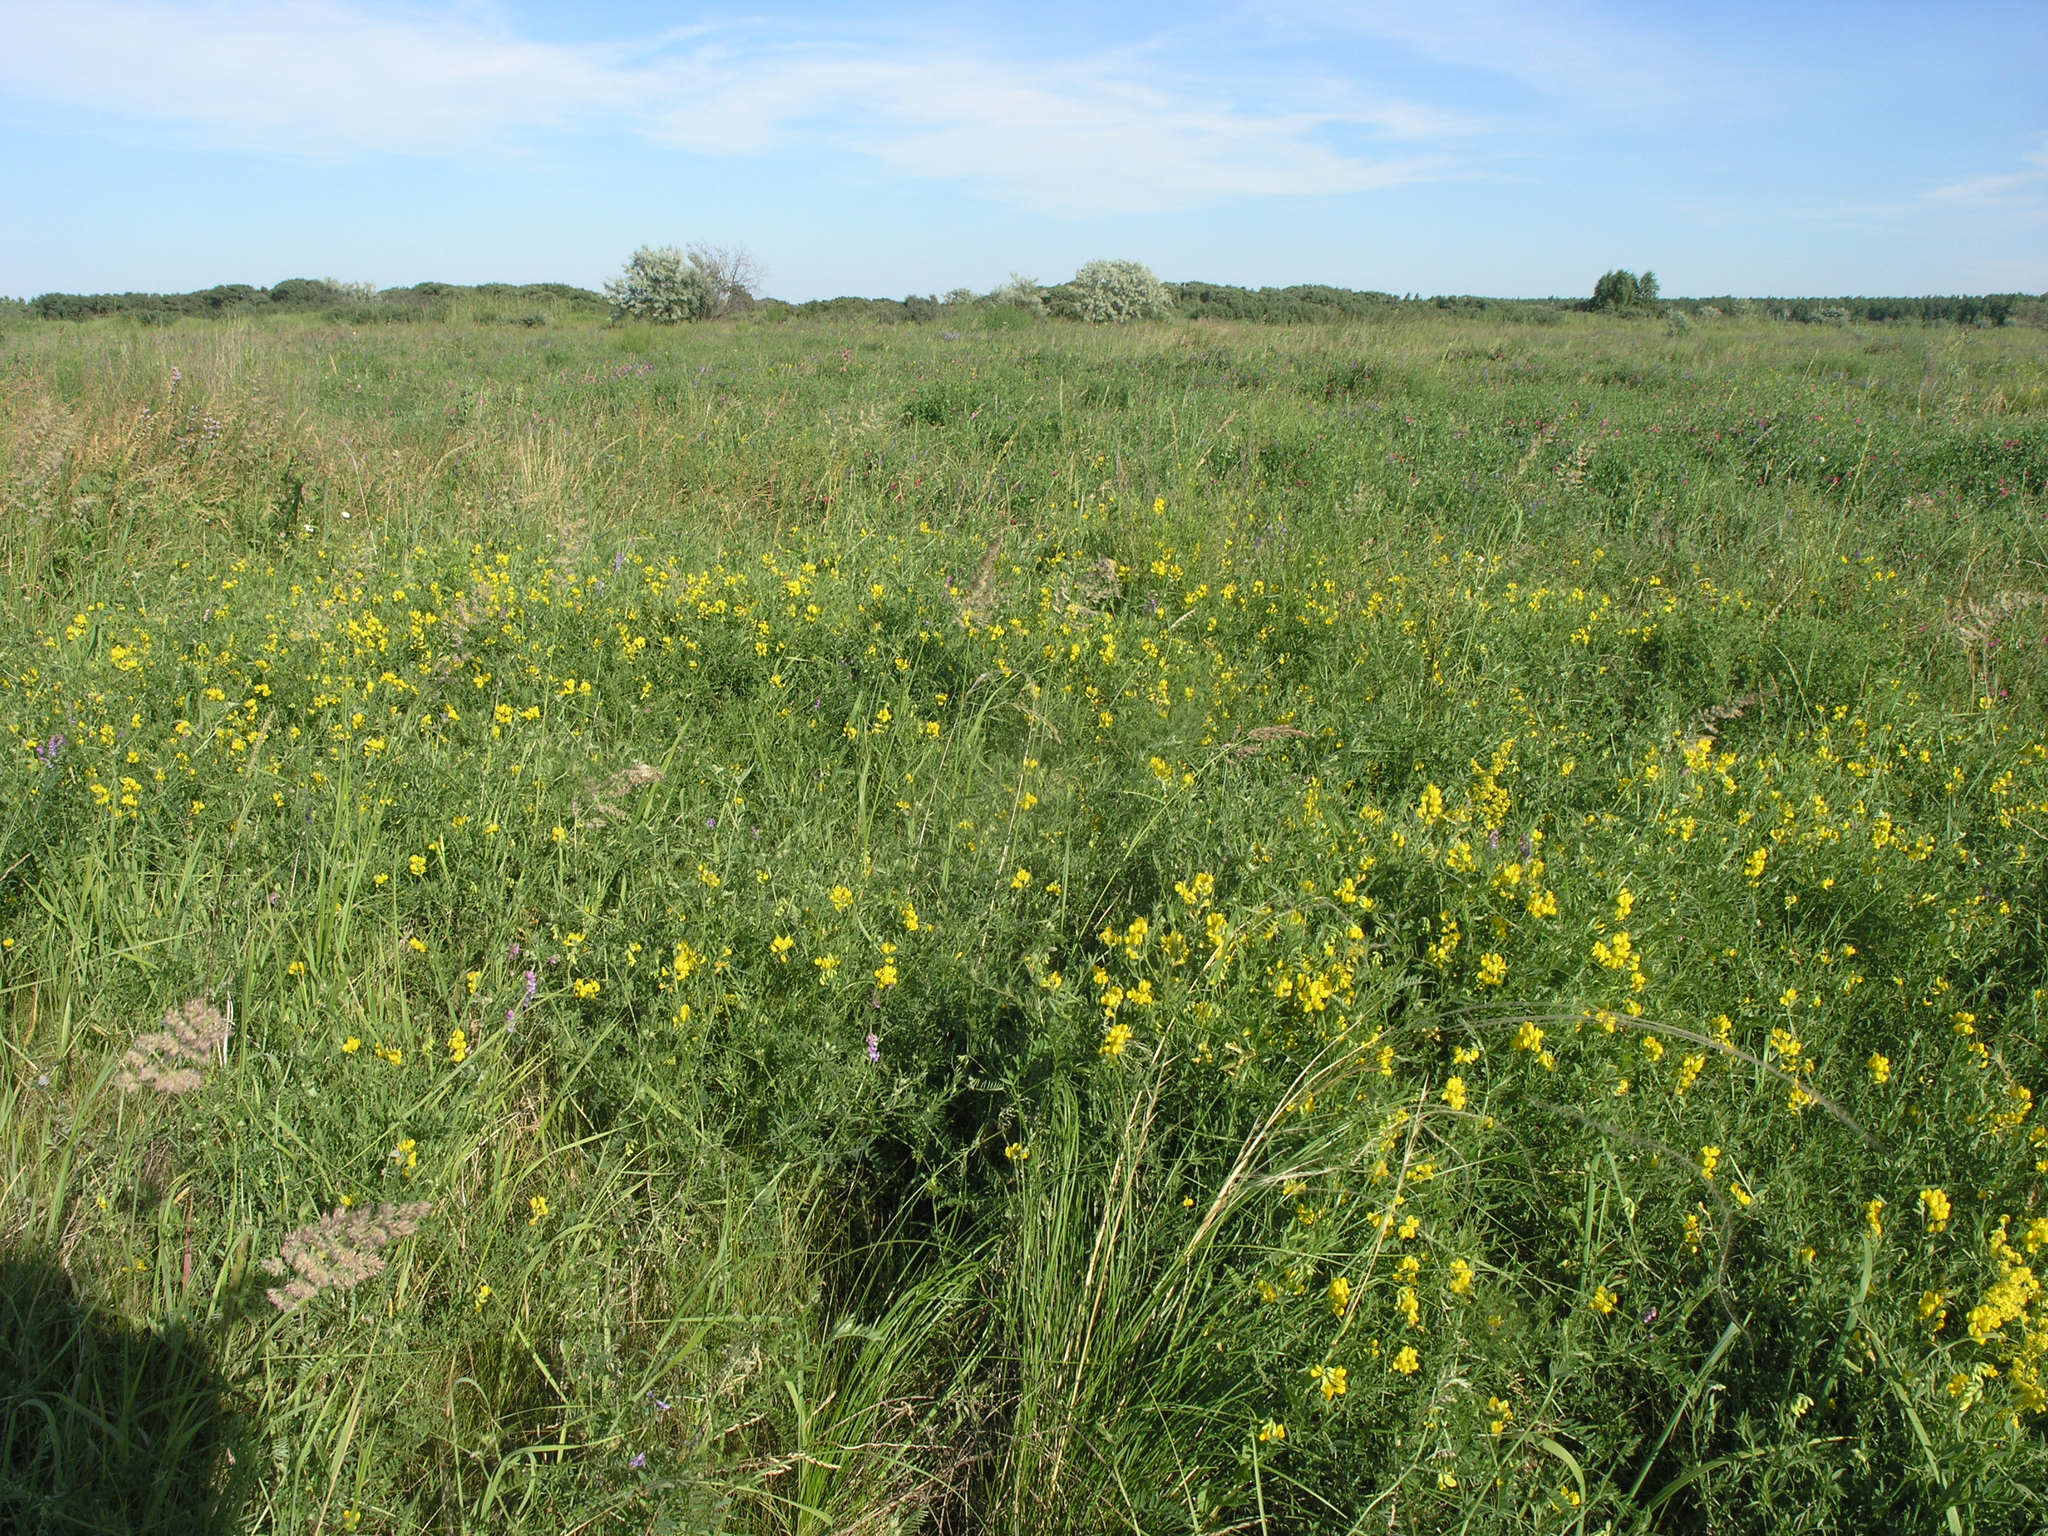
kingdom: Plantae
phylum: Tracheophyta
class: Magnoliopsida
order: Fabales
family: Fabaceae
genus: Lathyrus
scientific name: Lathyrus pratensis
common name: Meadow vetchling
